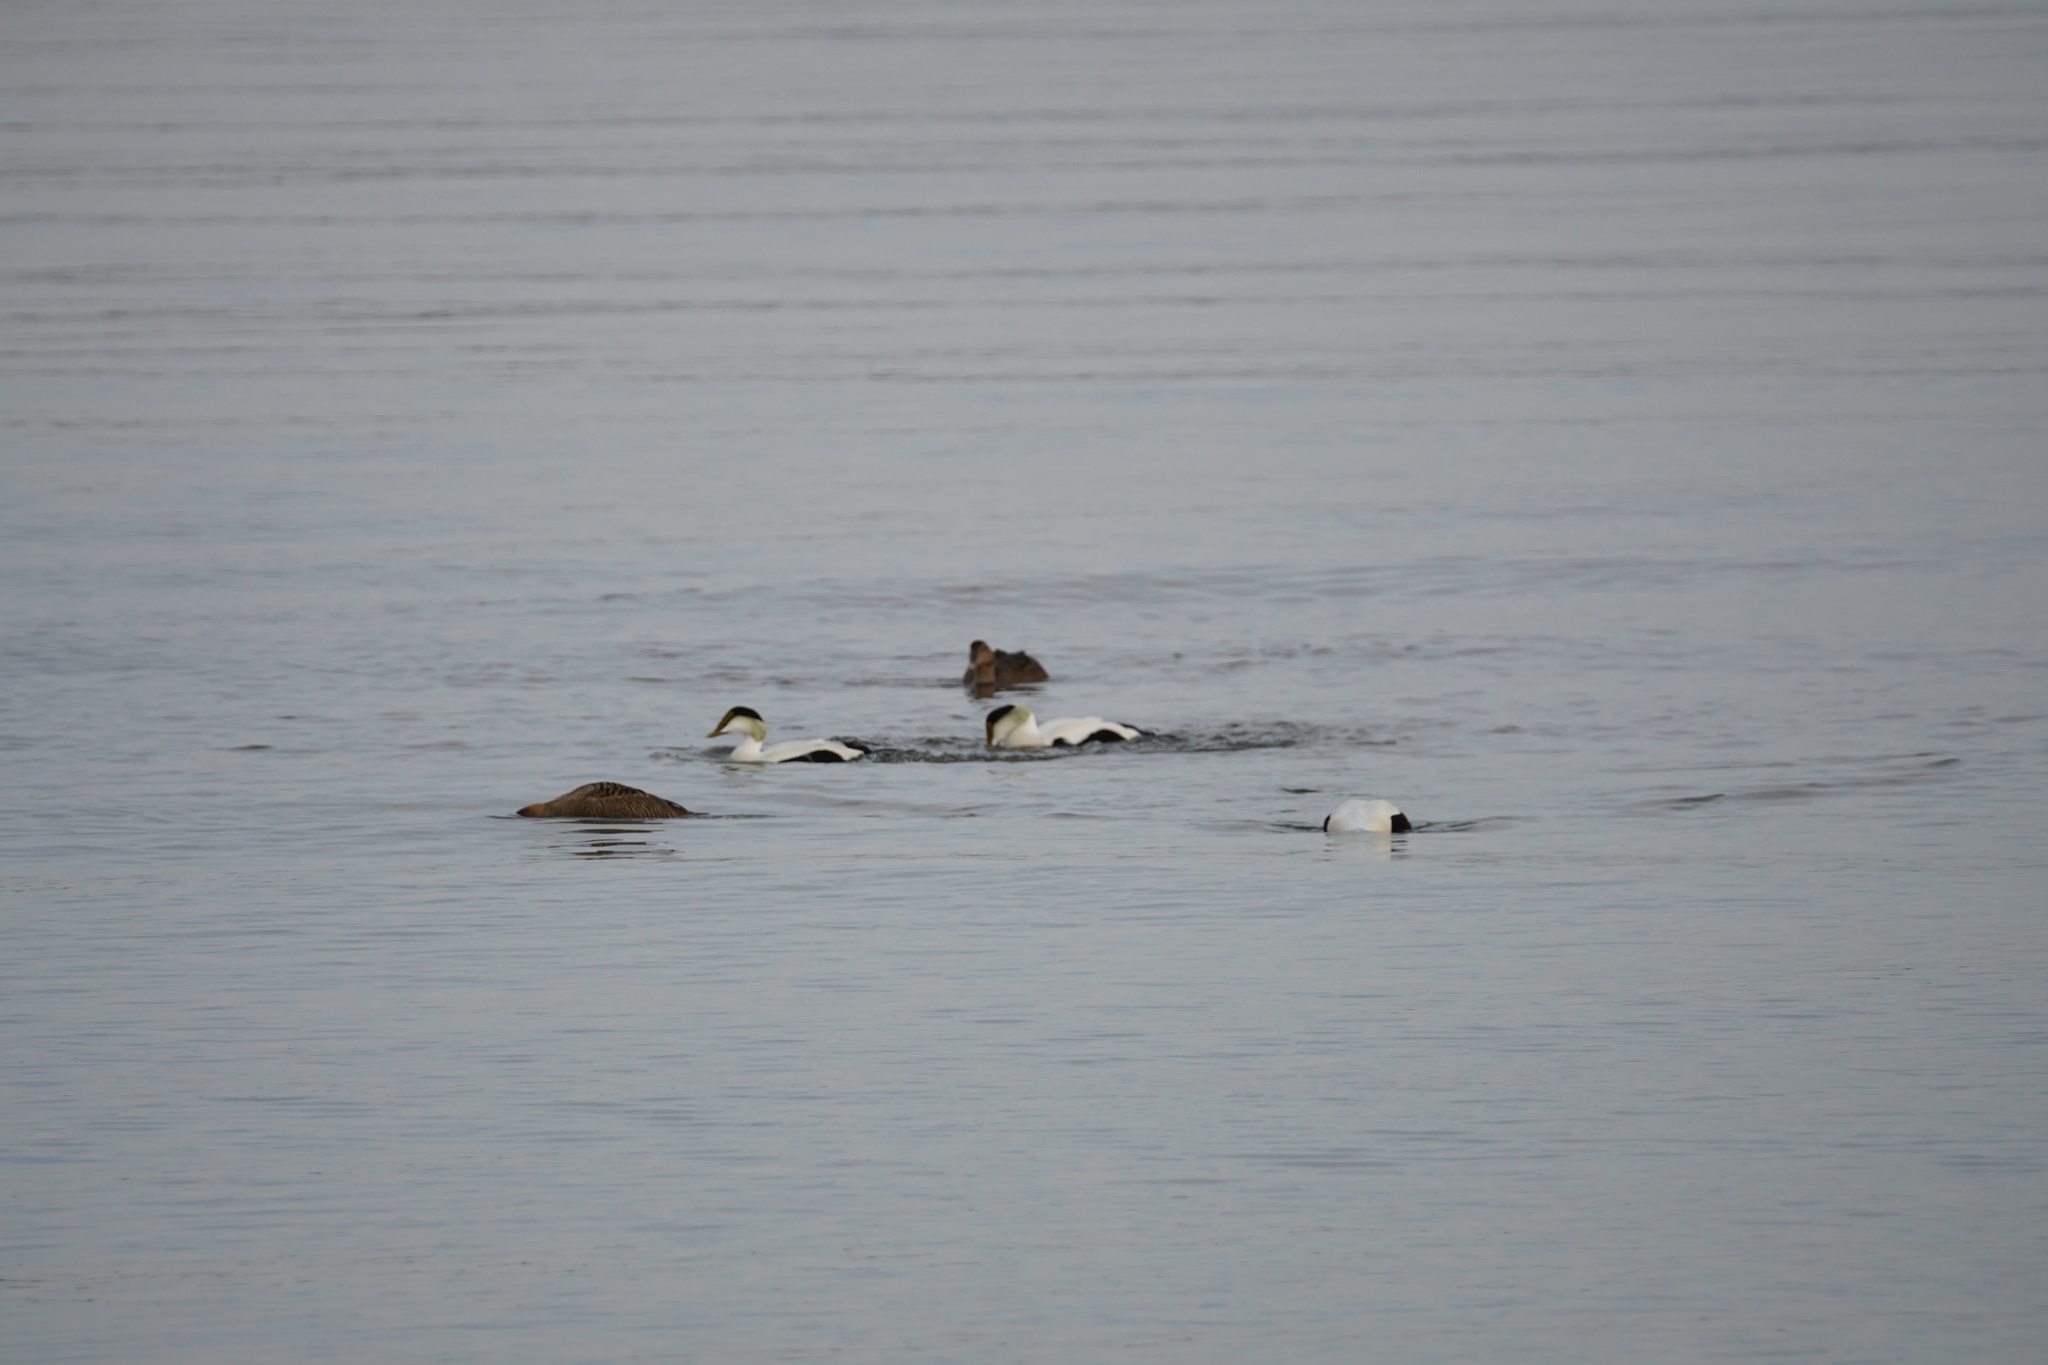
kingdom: Animalia
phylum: Chordata
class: Aves
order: Anseriformes
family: Anatidae
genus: Somateria
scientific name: Somateria mollissima
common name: Common eider
